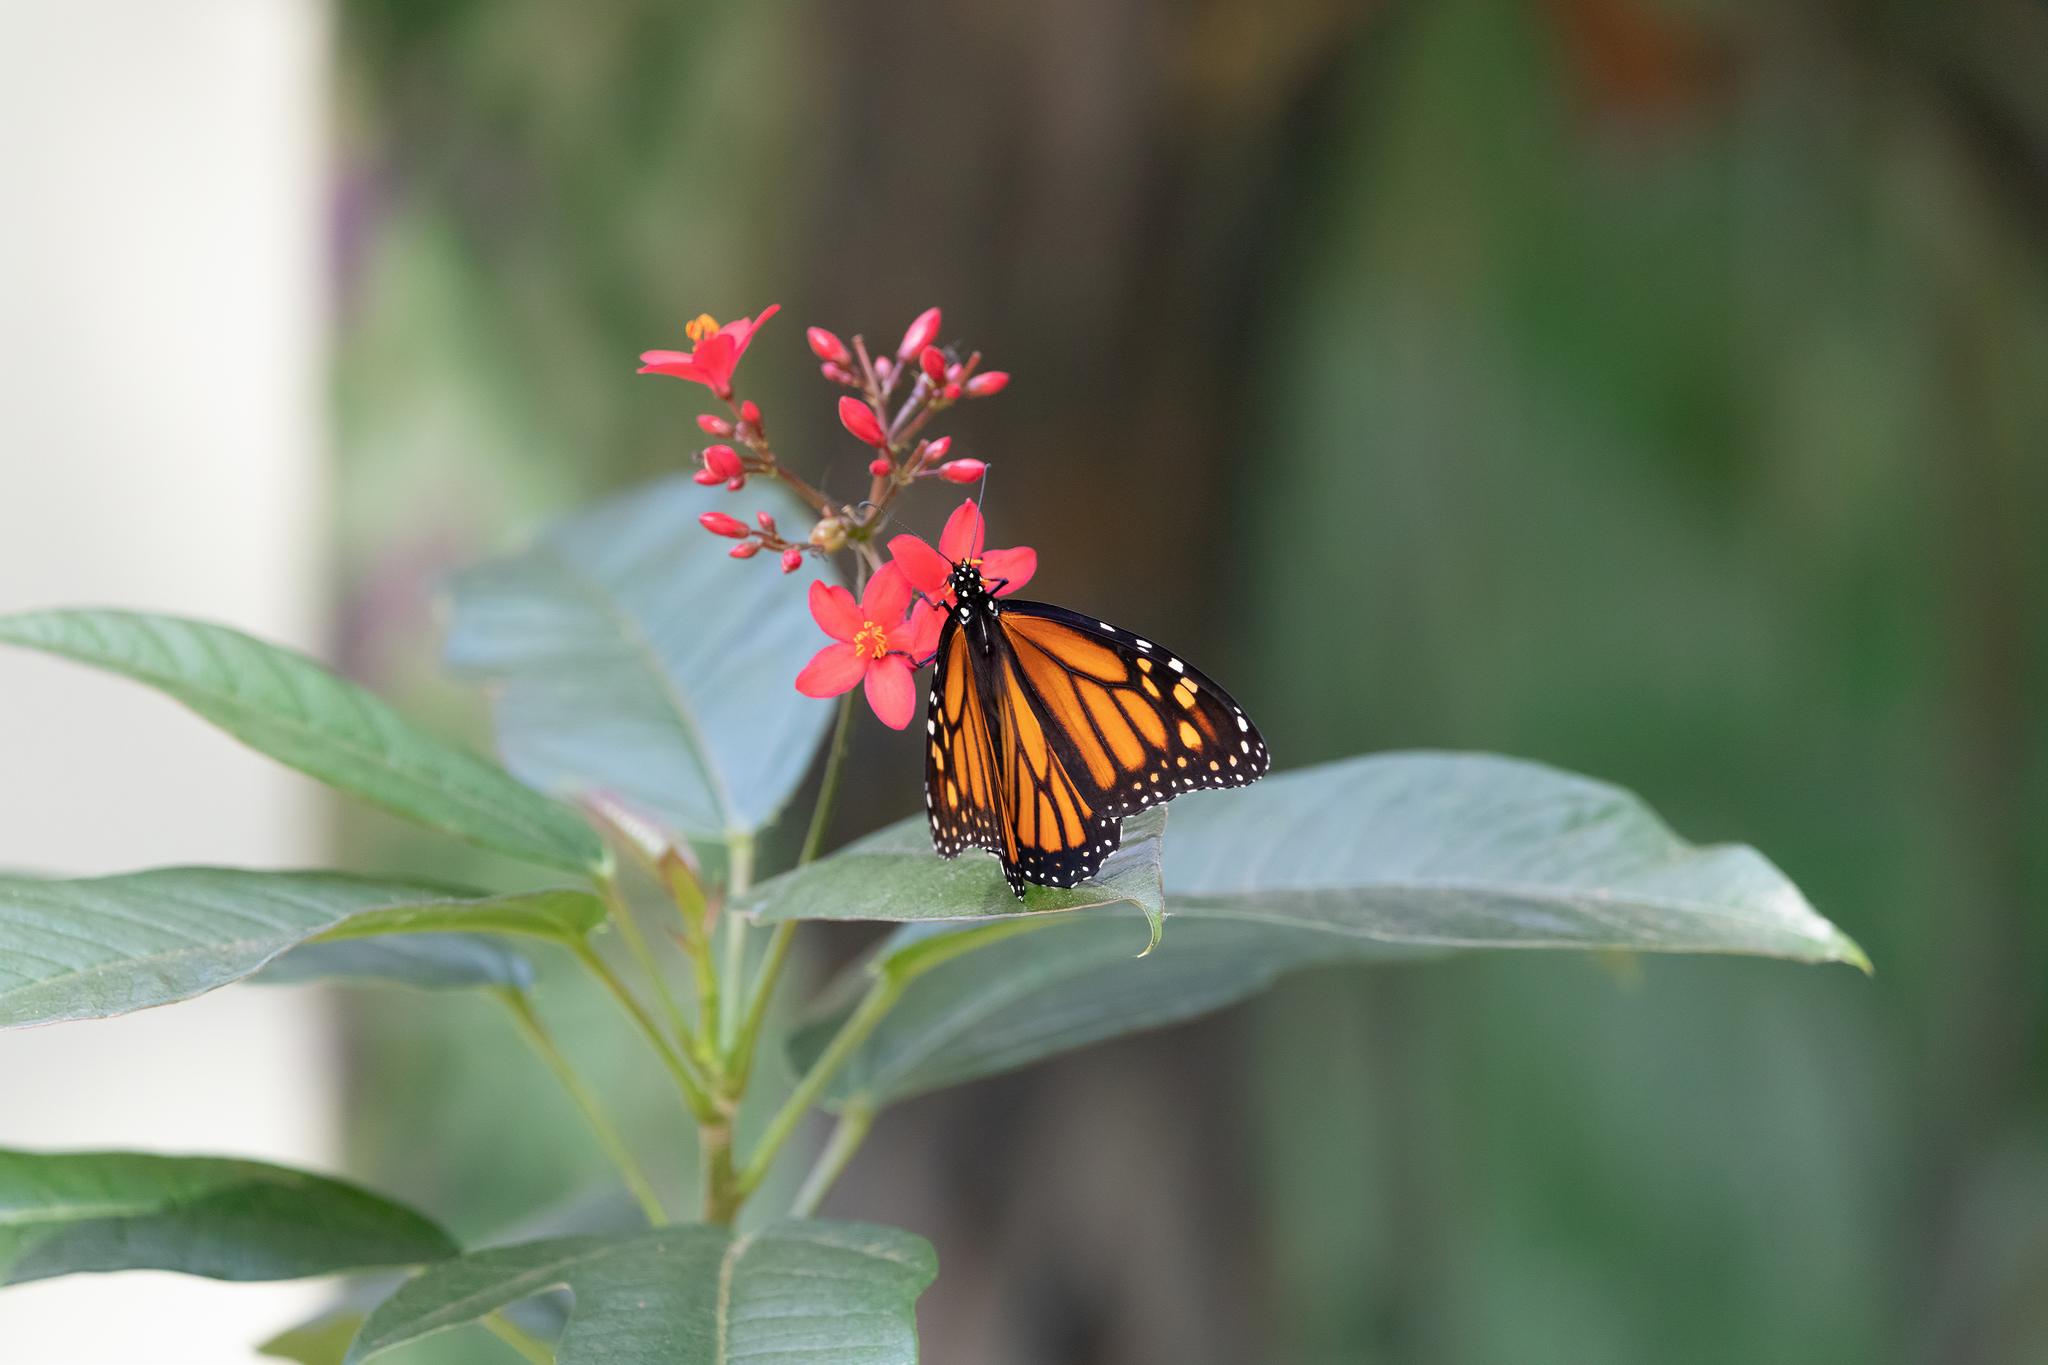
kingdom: Animalia
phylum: Arthropoda
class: Insecta
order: Lepidoptera
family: Nymphalidae
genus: Danaus
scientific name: Danaus plexippus
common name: Monarch
